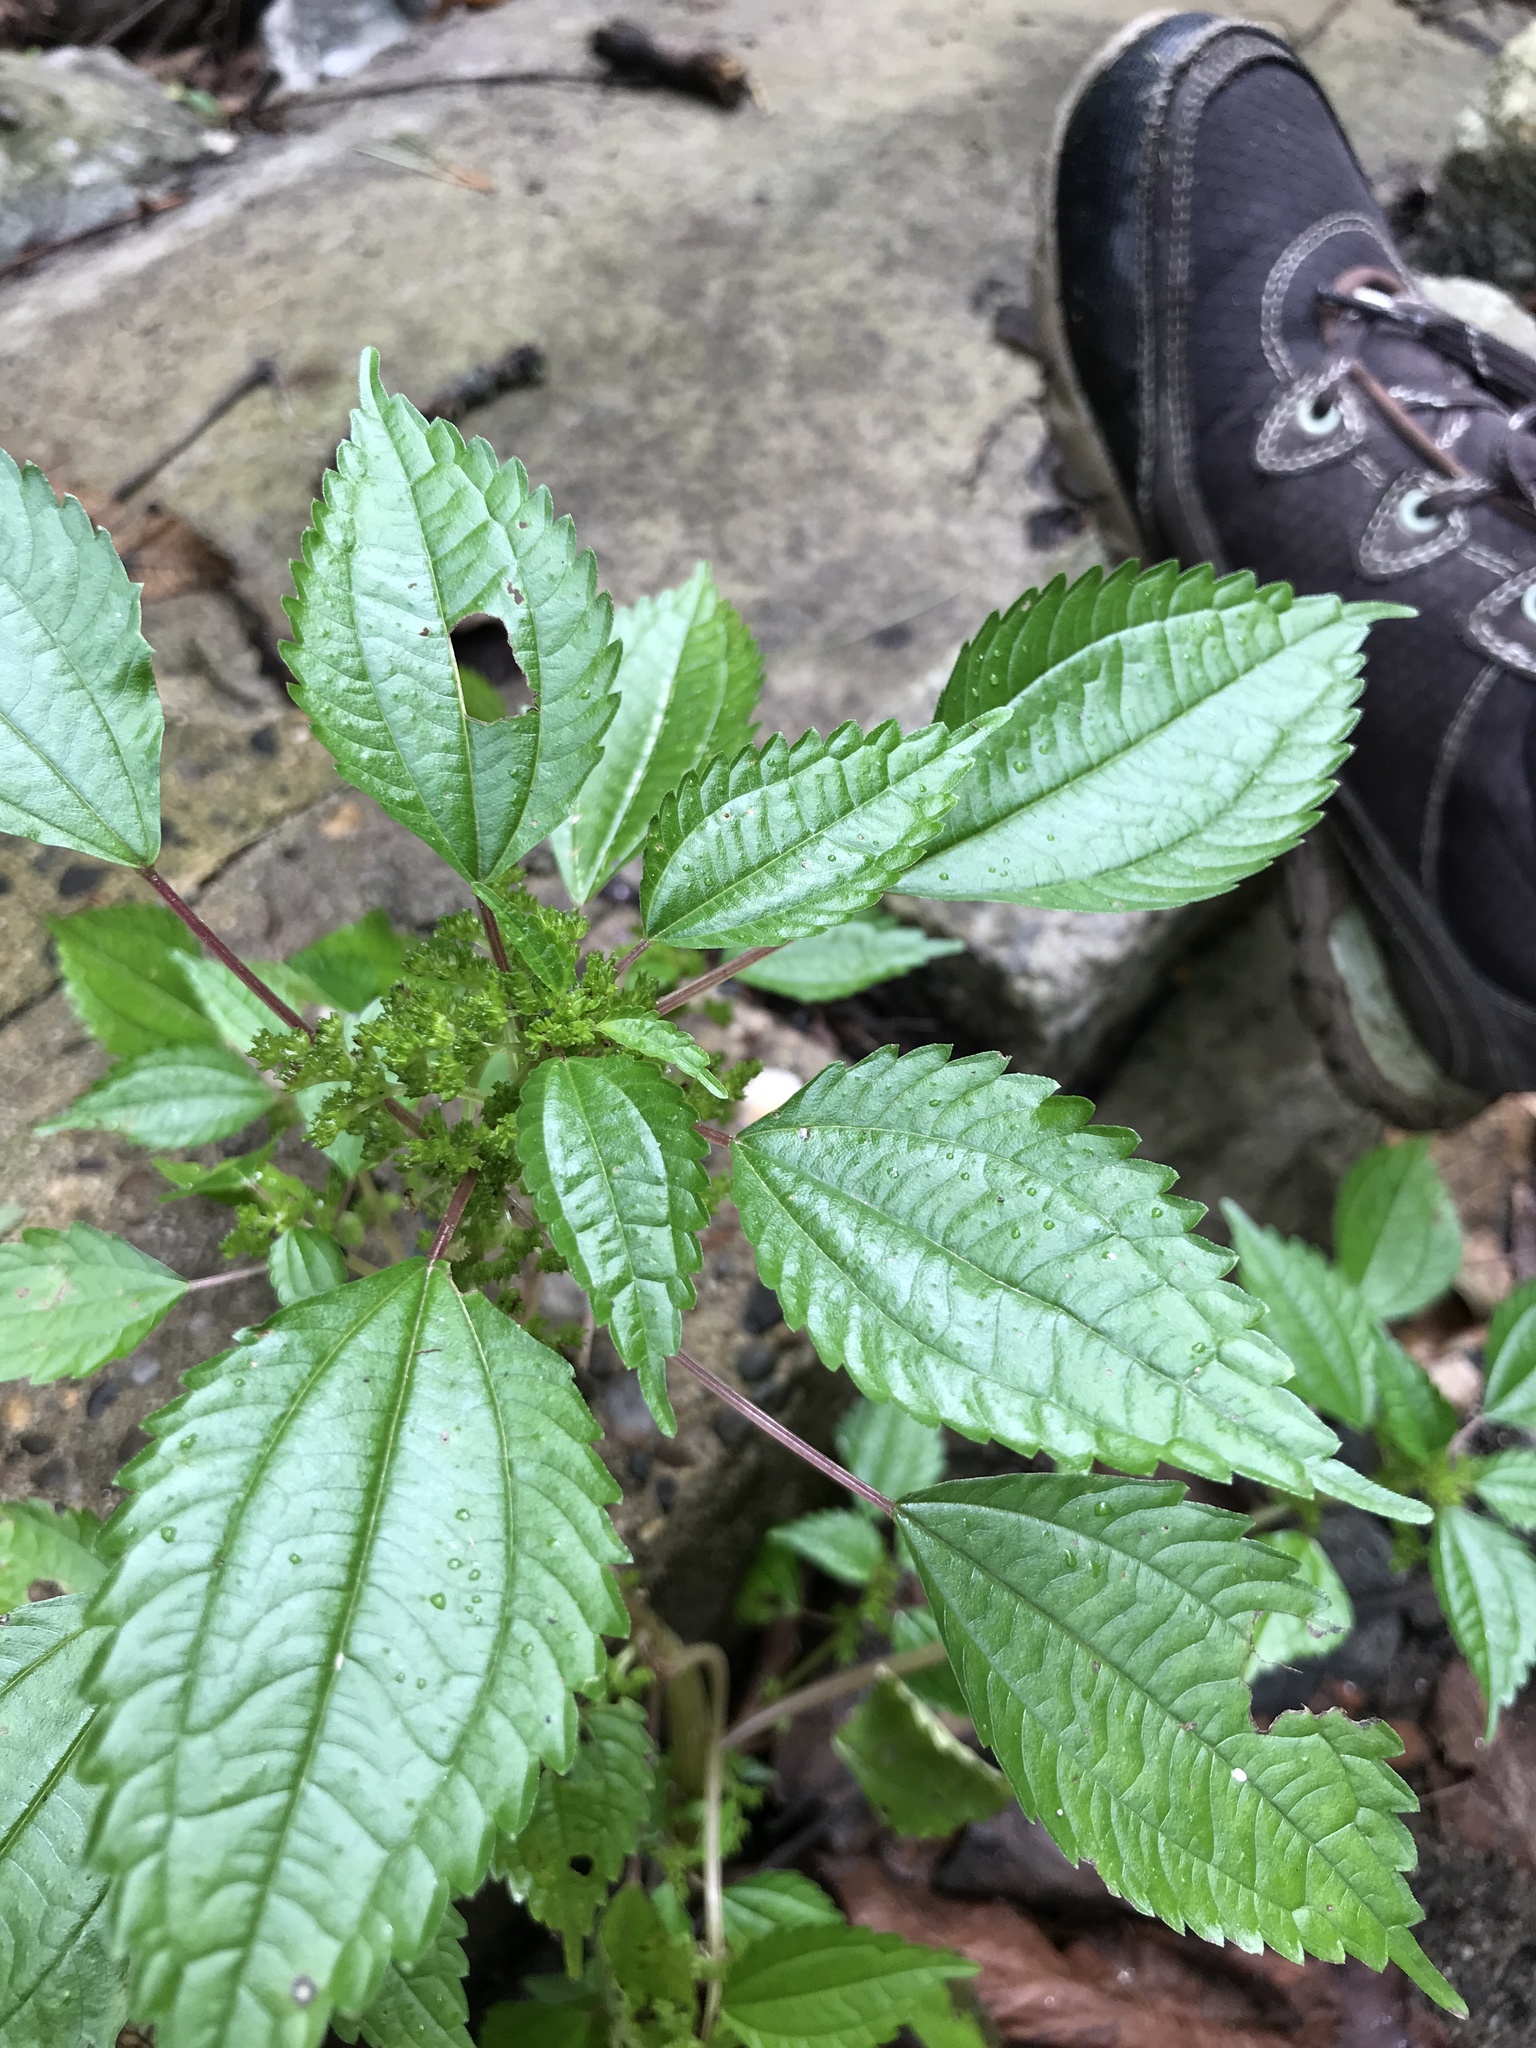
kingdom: Plantae
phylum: Tracheophyta
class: Magnoliopsida
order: Rosales
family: Urticaceae
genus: Pilea
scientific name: Pilea pumila
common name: Clearweed
